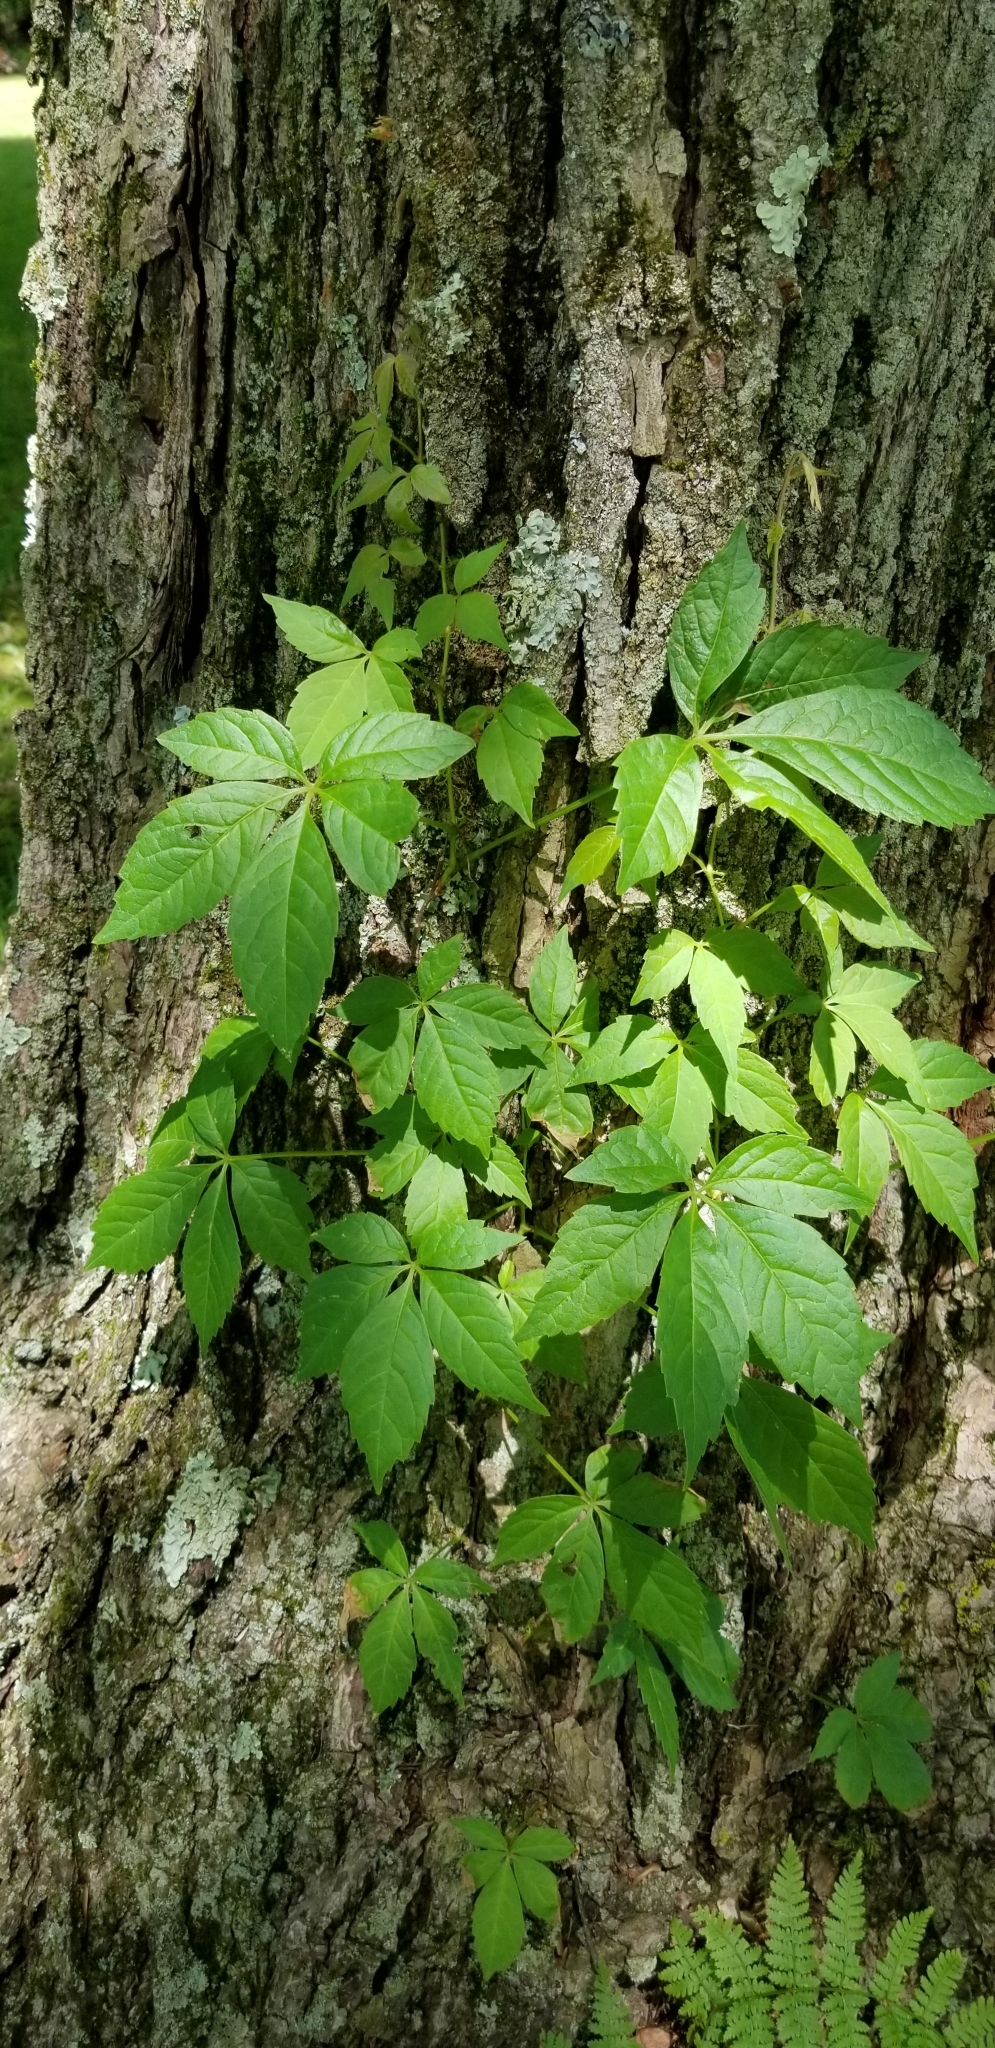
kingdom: Plantae
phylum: Tracheophyta
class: Magnoliopsida
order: Vitales
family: Vitaceae
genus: Parthenocissus
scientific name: Parthenocissus quinquefolia
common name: Virginia-creeper
